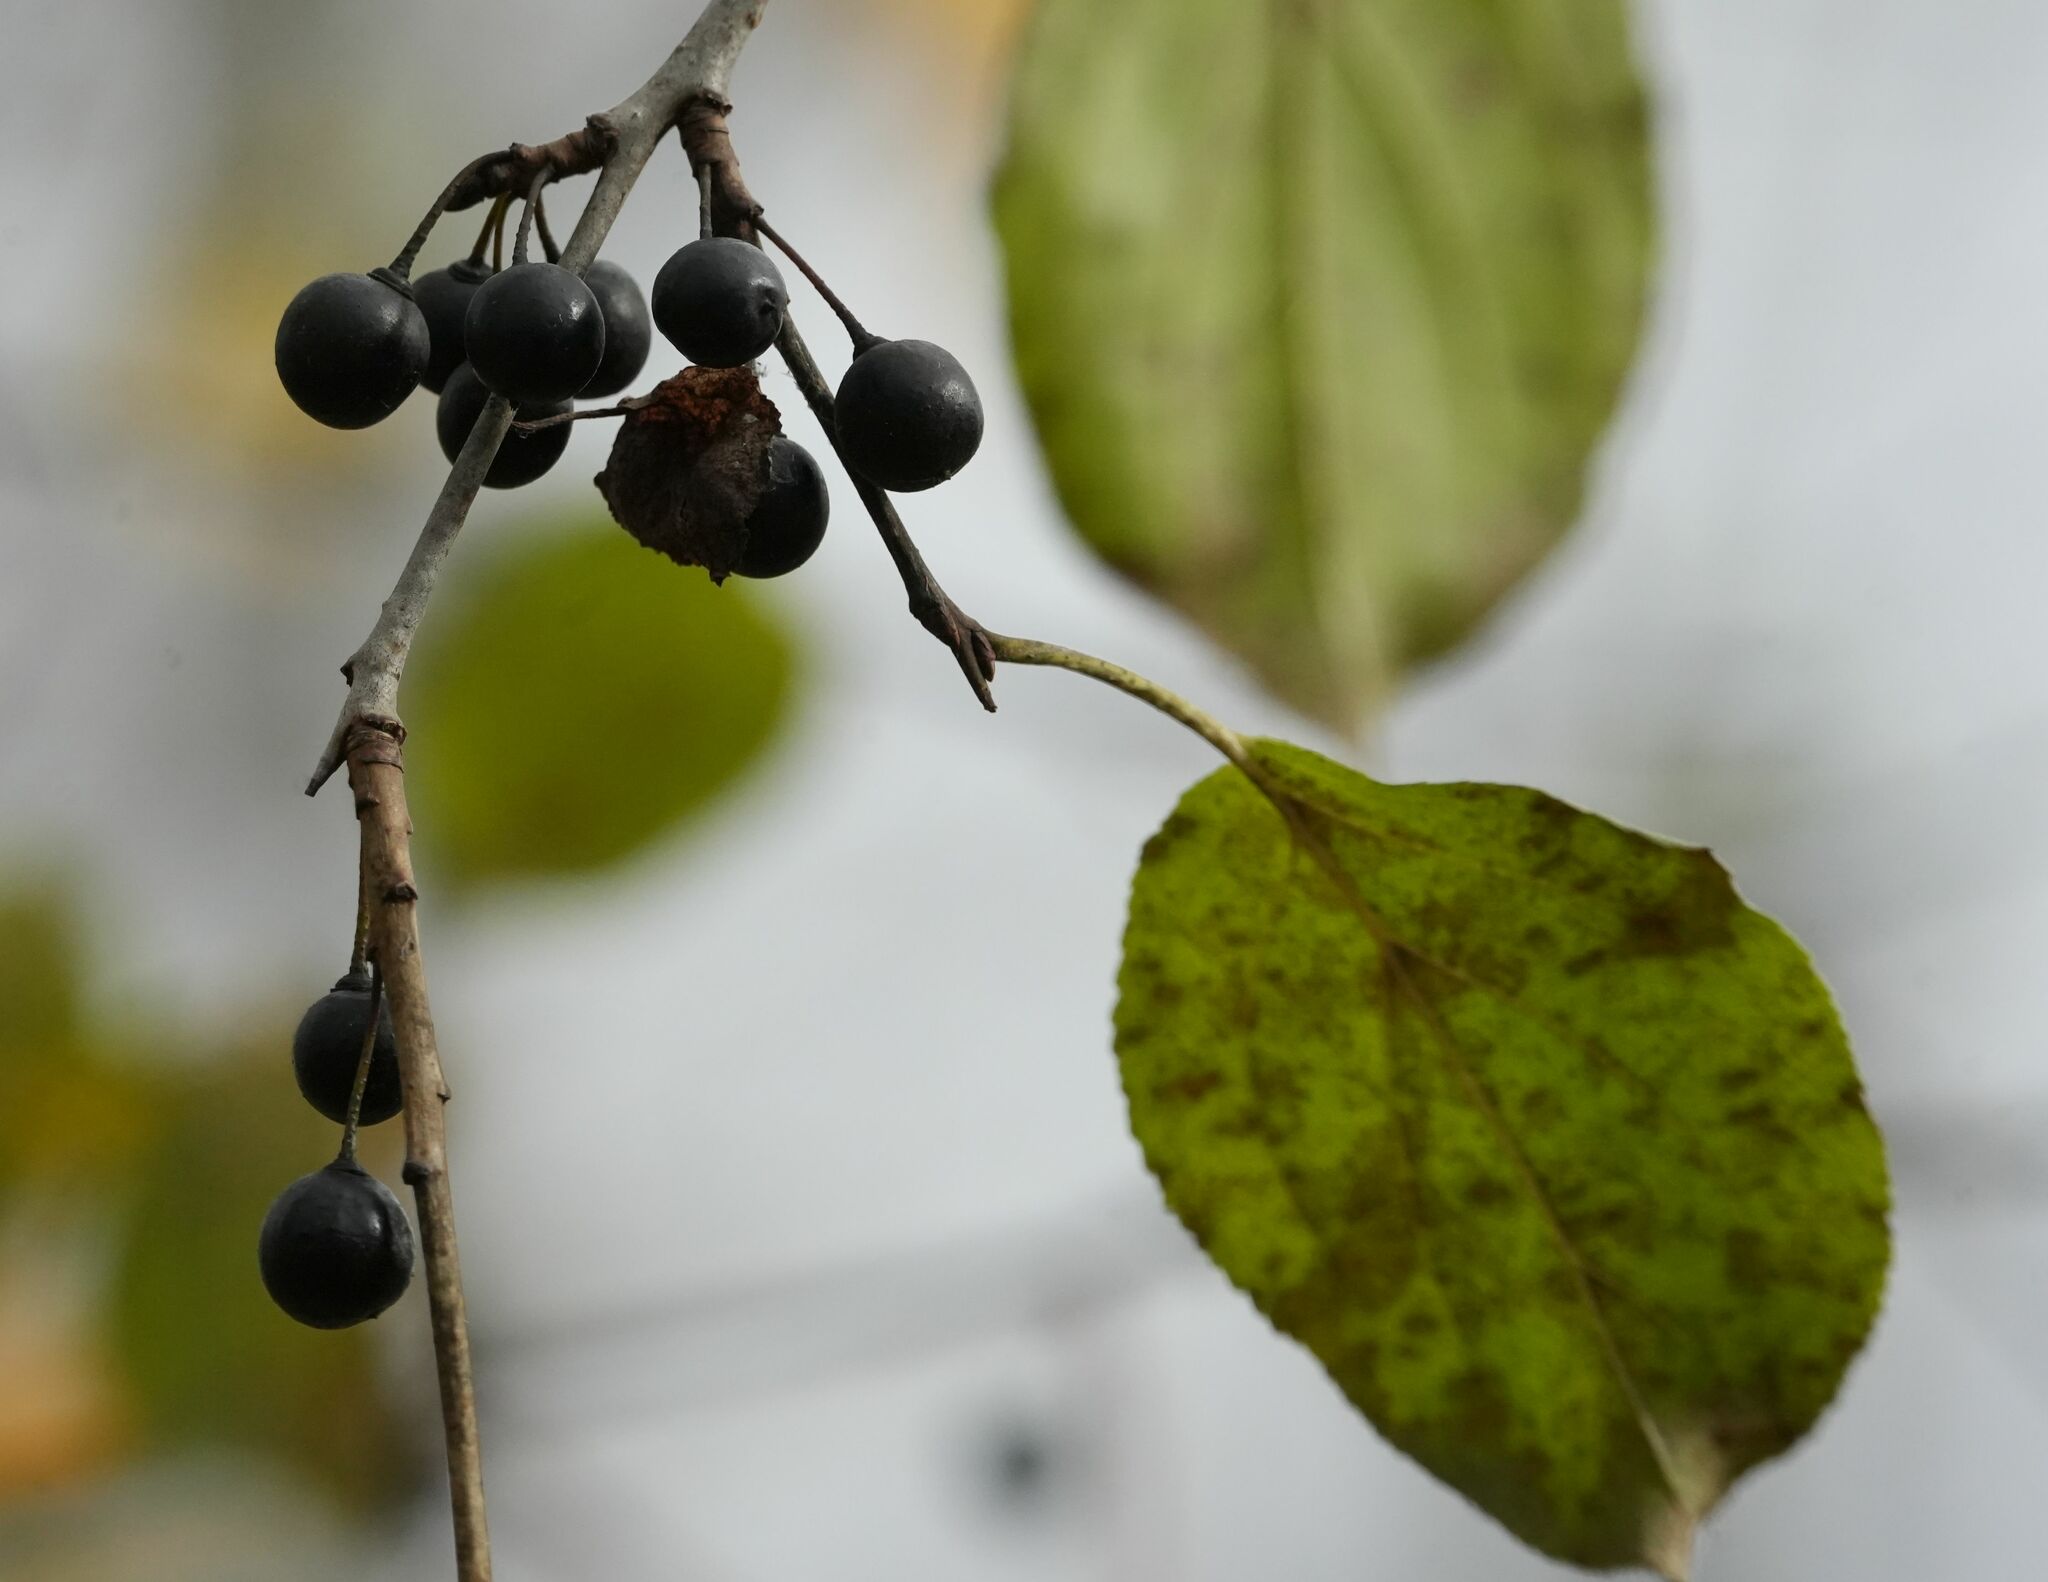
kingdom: Plantae
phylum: Tracheophyta
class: Magnoliopsida
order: Rosales
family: Rhamnaceae
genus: Rhamnus
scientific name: Rhamnus cathartica
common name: Common buckthorn
